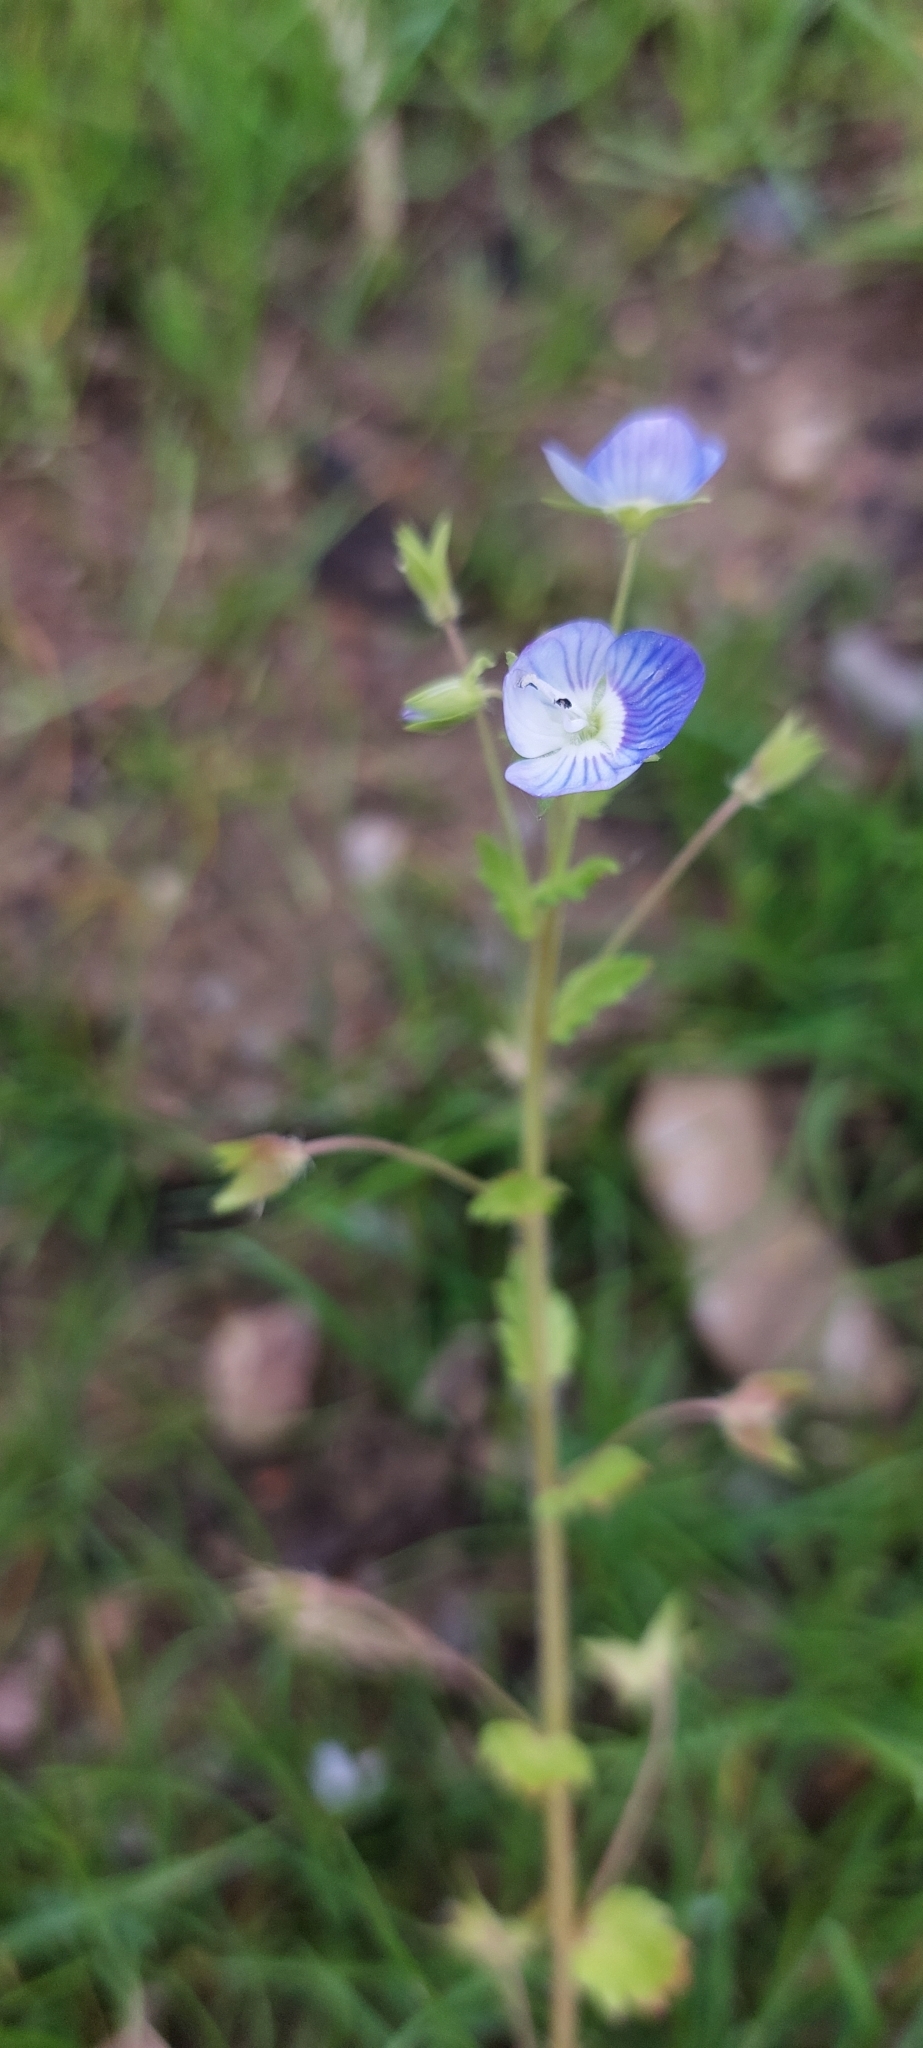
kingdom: Plantae
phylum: Tracheophyta
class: Magnoliopsida
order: Lamiales
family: Plantaginaceae
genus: Veronica
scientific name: Veronica persica
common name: Common field-speedwell
